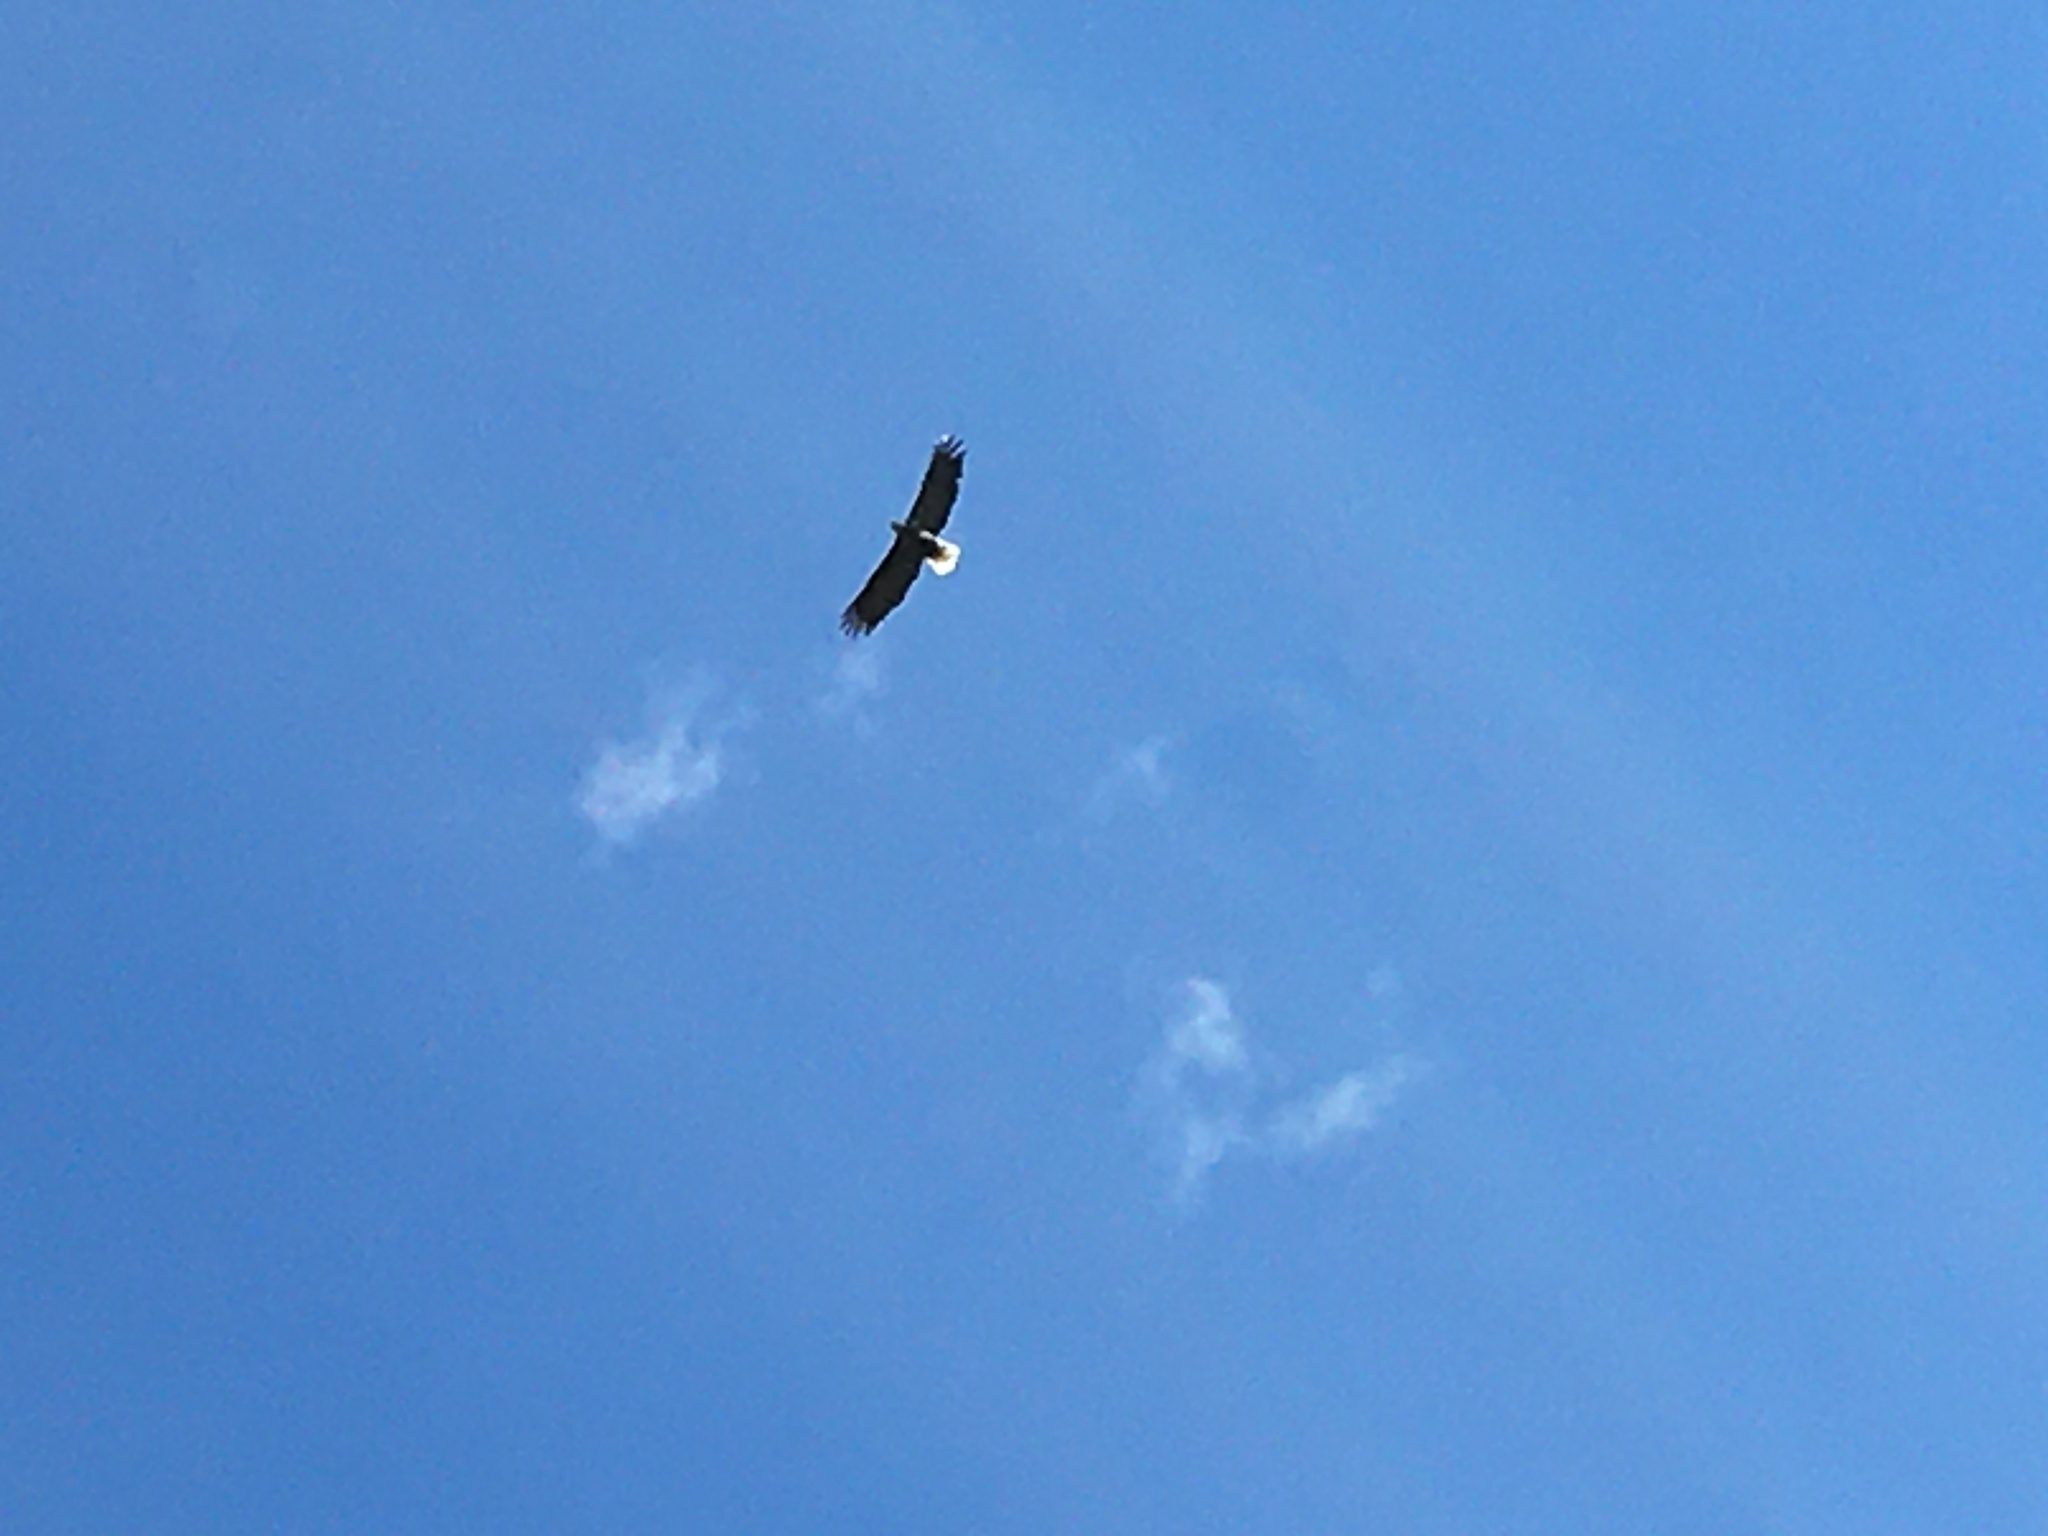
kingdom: Animalia
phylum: Chordata
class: Aves
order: Accipitriformes
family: Accipitridae
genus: Haliaeetus
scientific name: Haliaeetus leucocephalus
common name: Bald eagle
